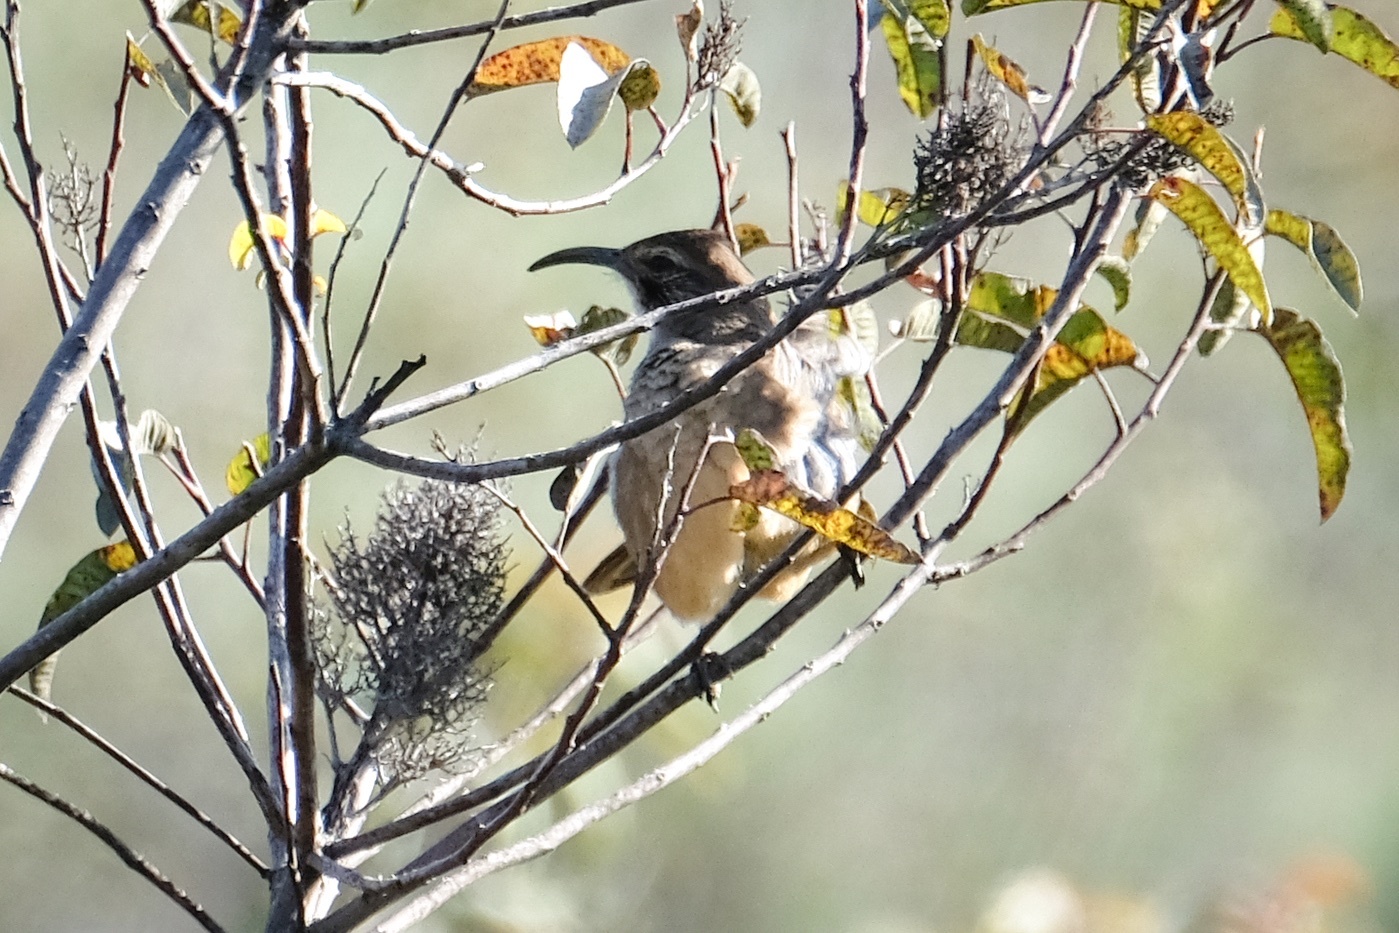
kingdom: Animalia
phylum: Chordata
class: Aves
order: Passeriformes
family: Mimidae
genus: Toxostoma
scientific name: Toxostoma redivivum
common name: California thrasher
